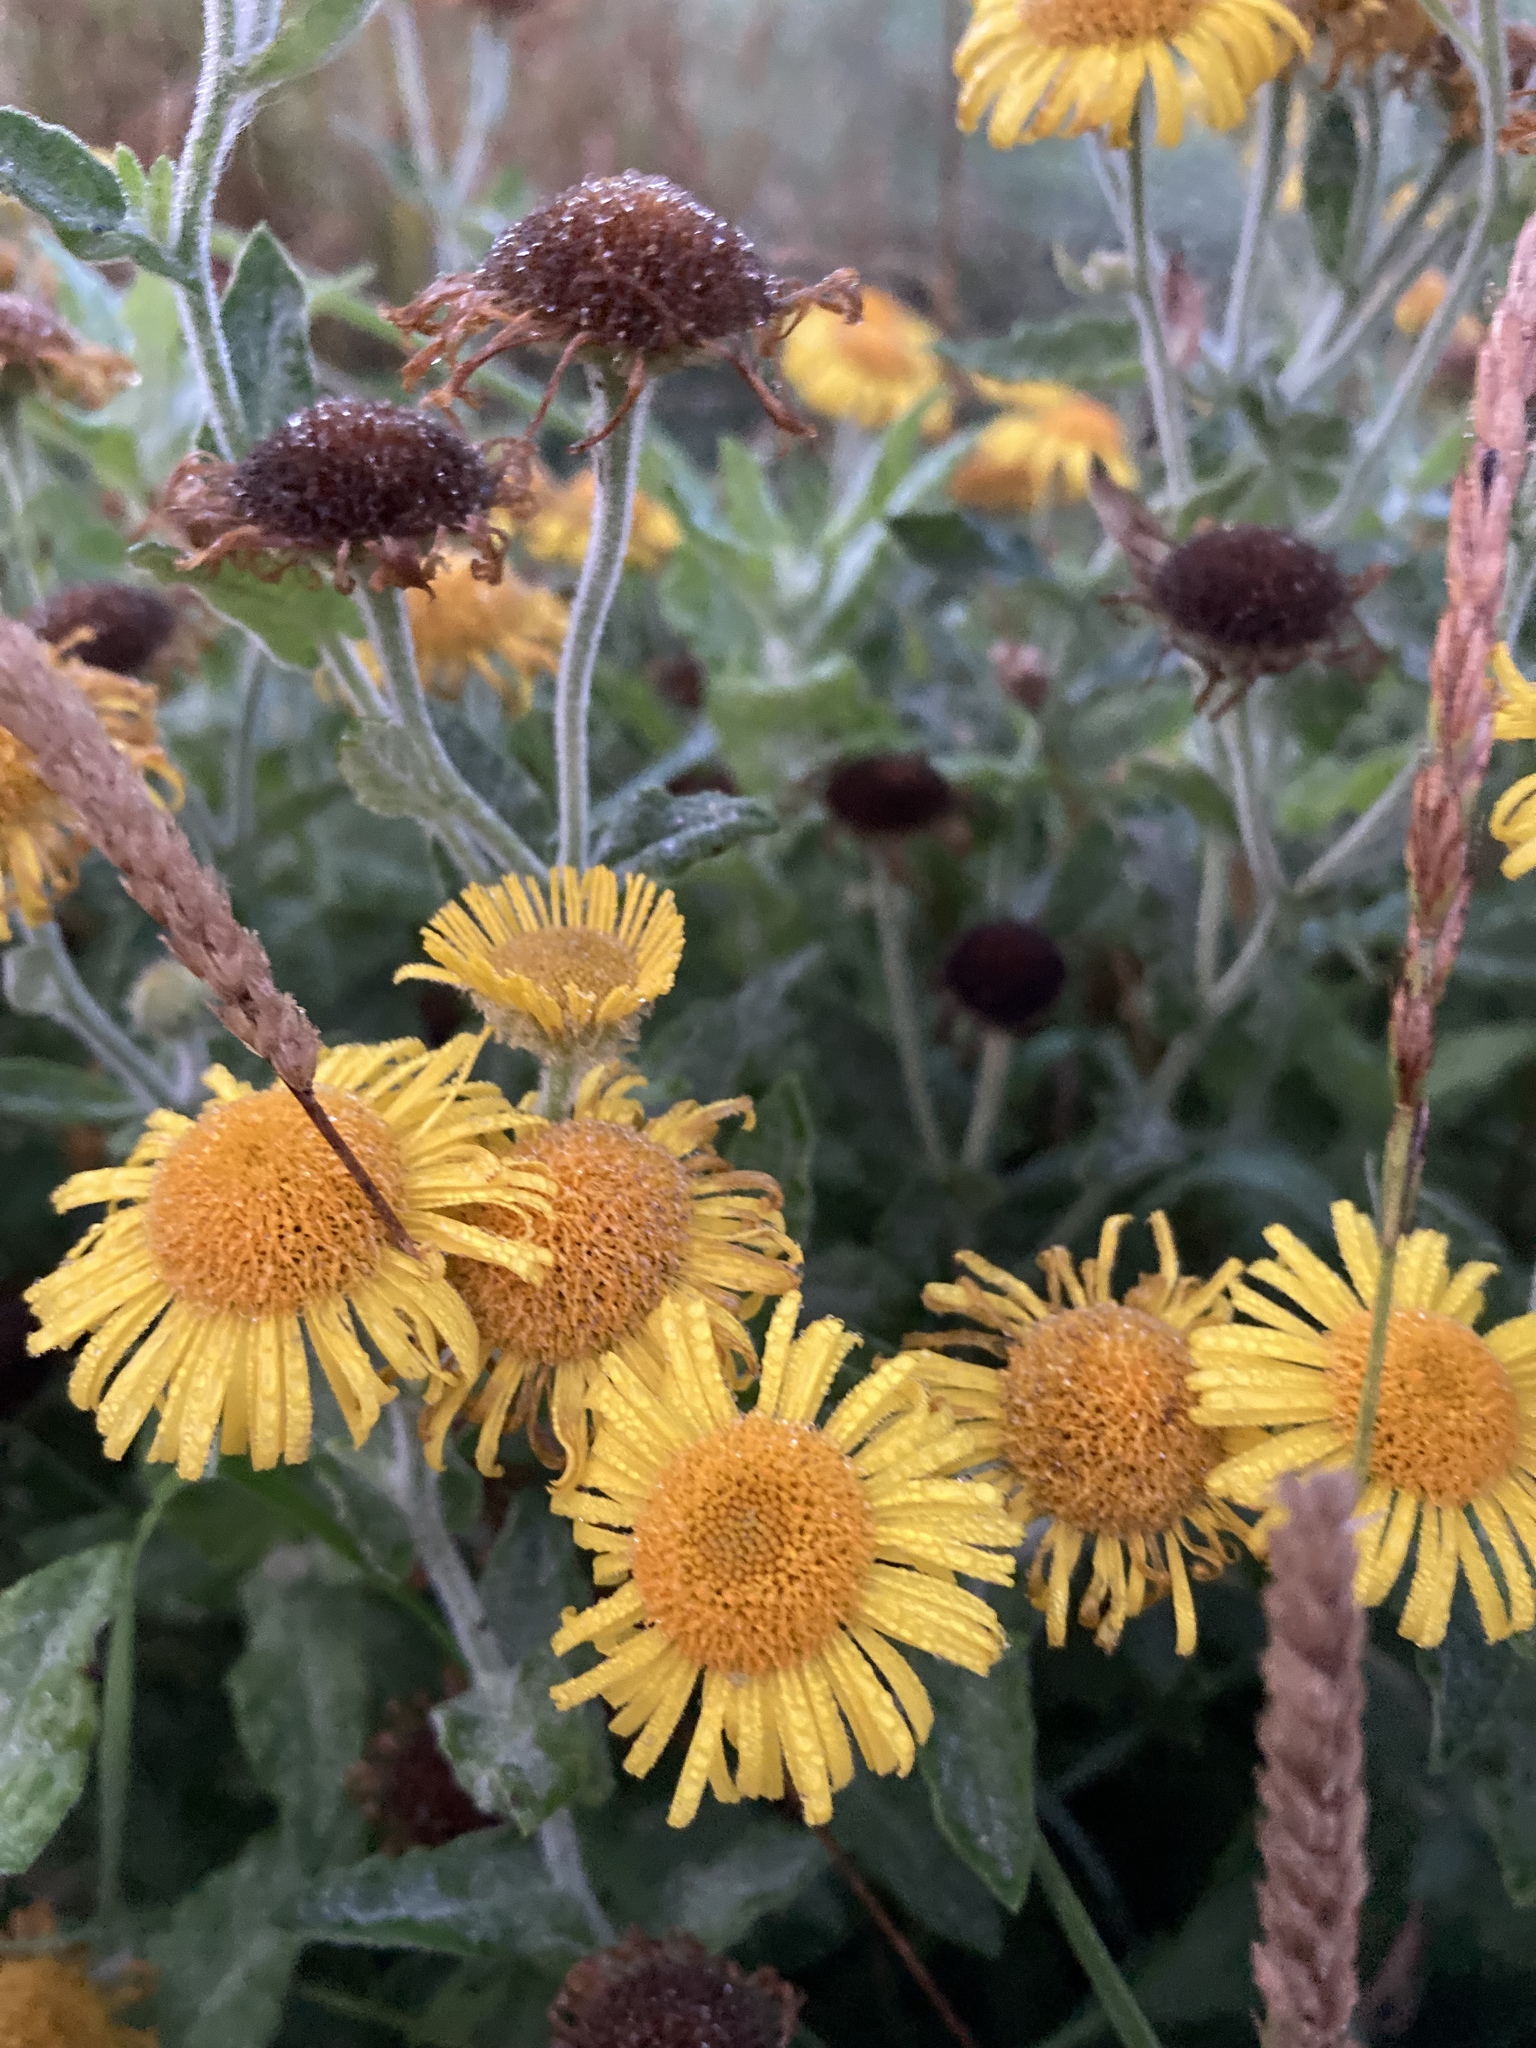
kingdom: Plantae
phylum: Tracheophyta
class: Magnoliopsida
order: Asterales
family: Asteraceae
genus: Pulicaria
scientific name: Pulicaria dysenterica
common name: Common fleabane
